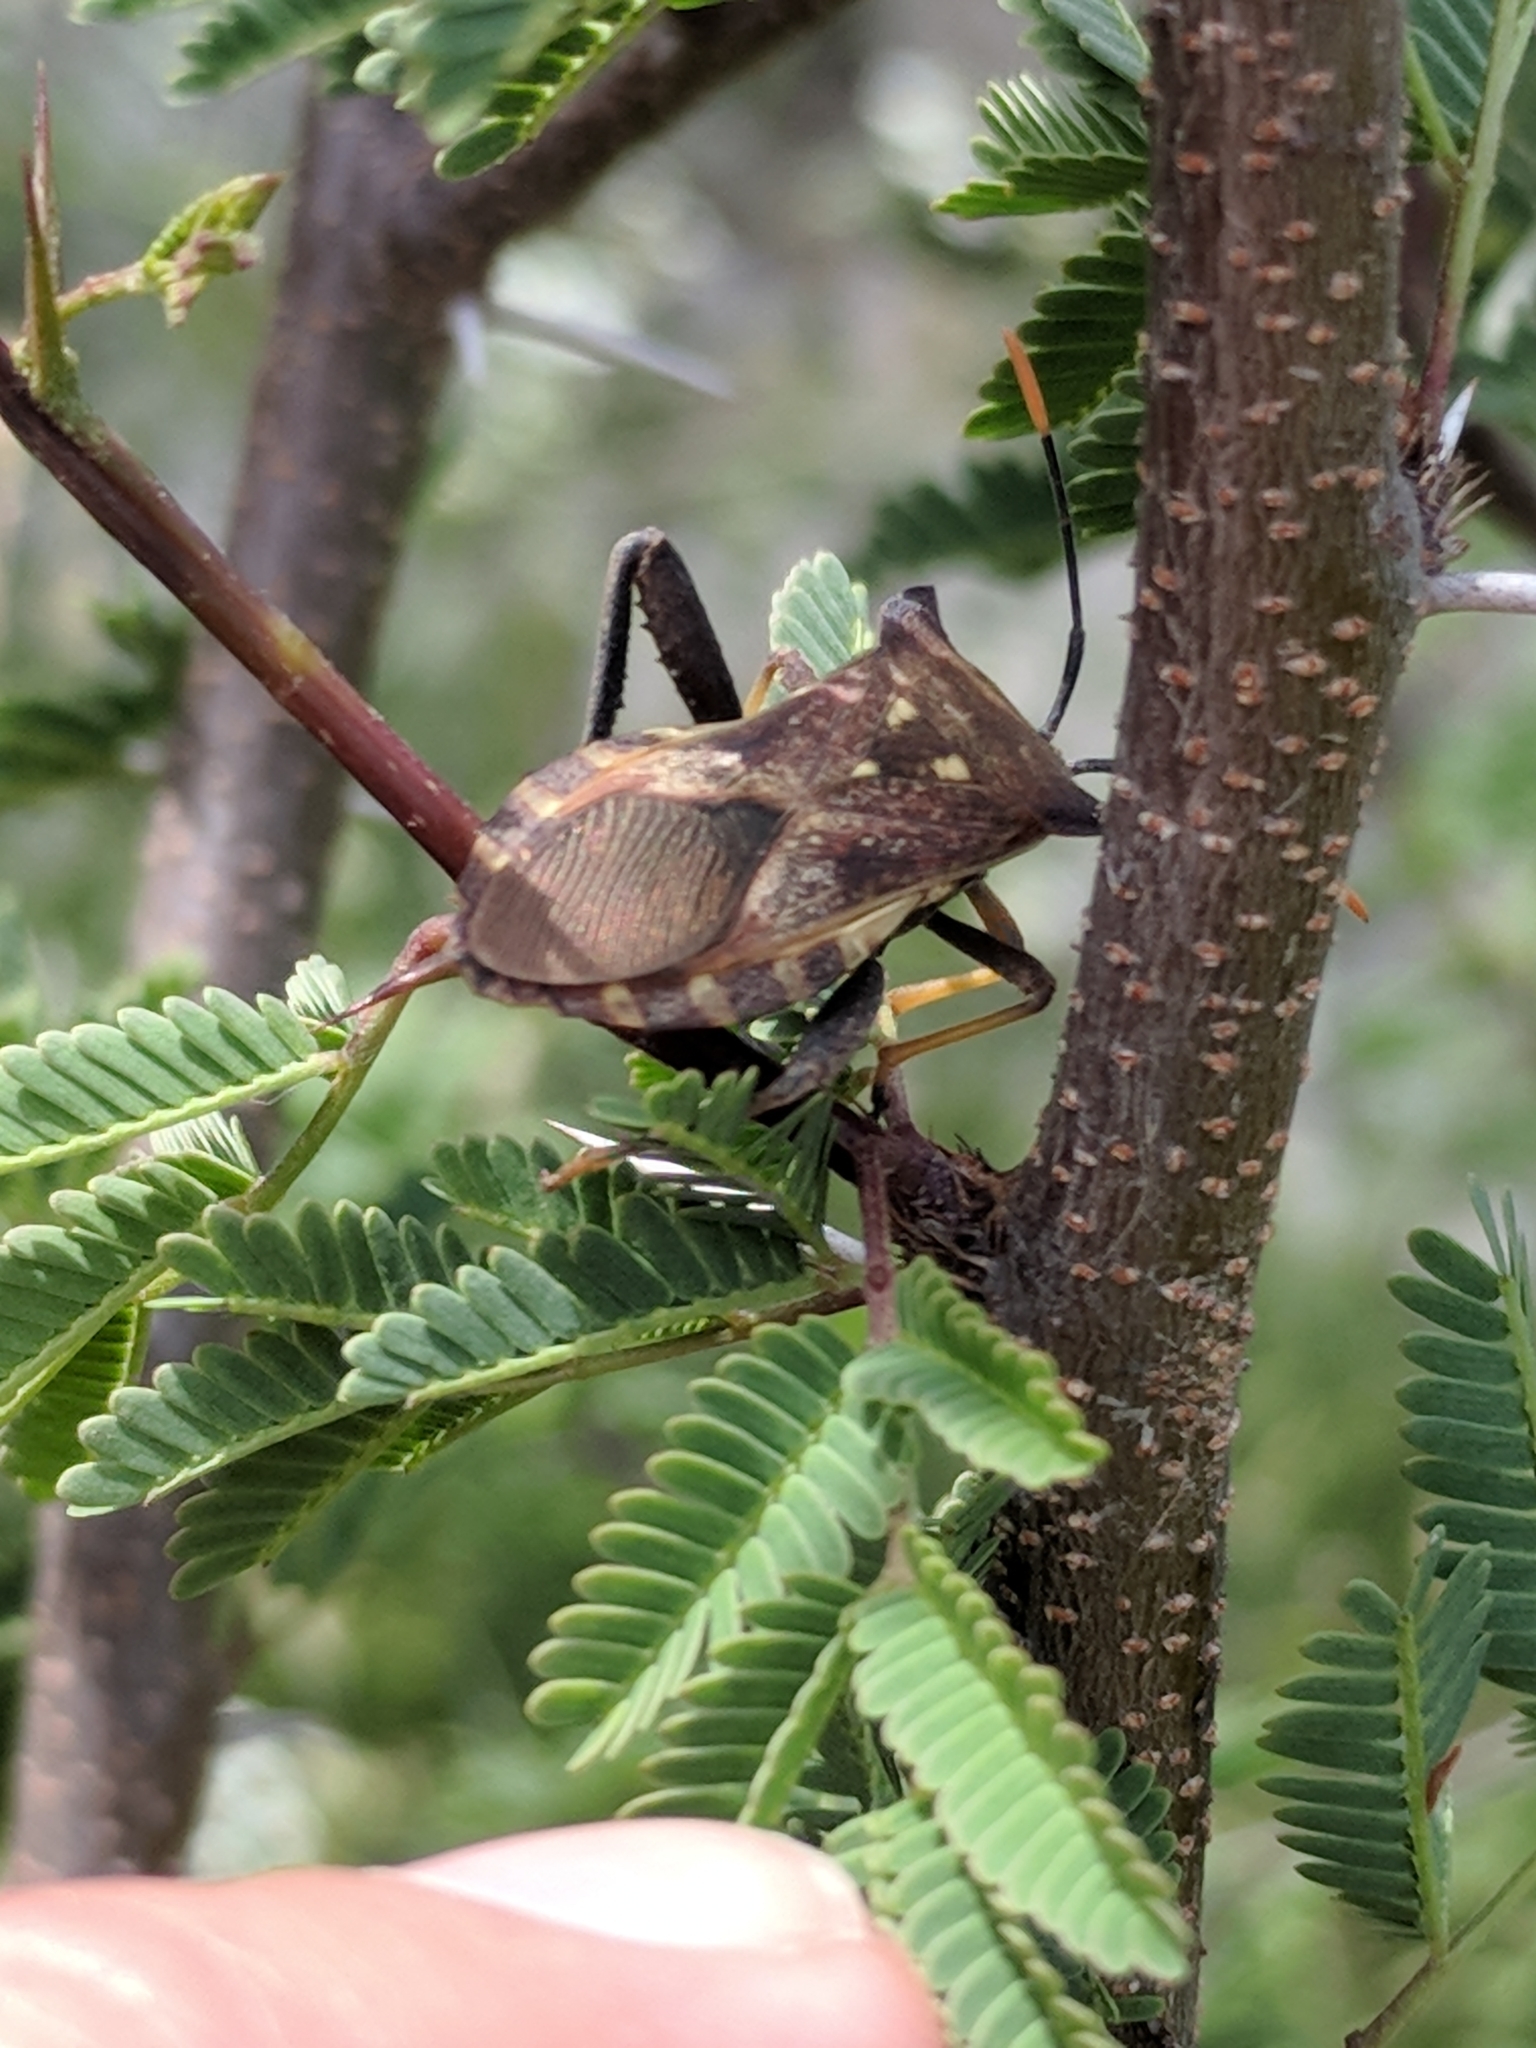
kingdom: Animalia
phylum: Arthropoda
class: Insecta
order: Hemiptera
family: Coreidae
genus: Mozena
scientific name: Mozena lunata
